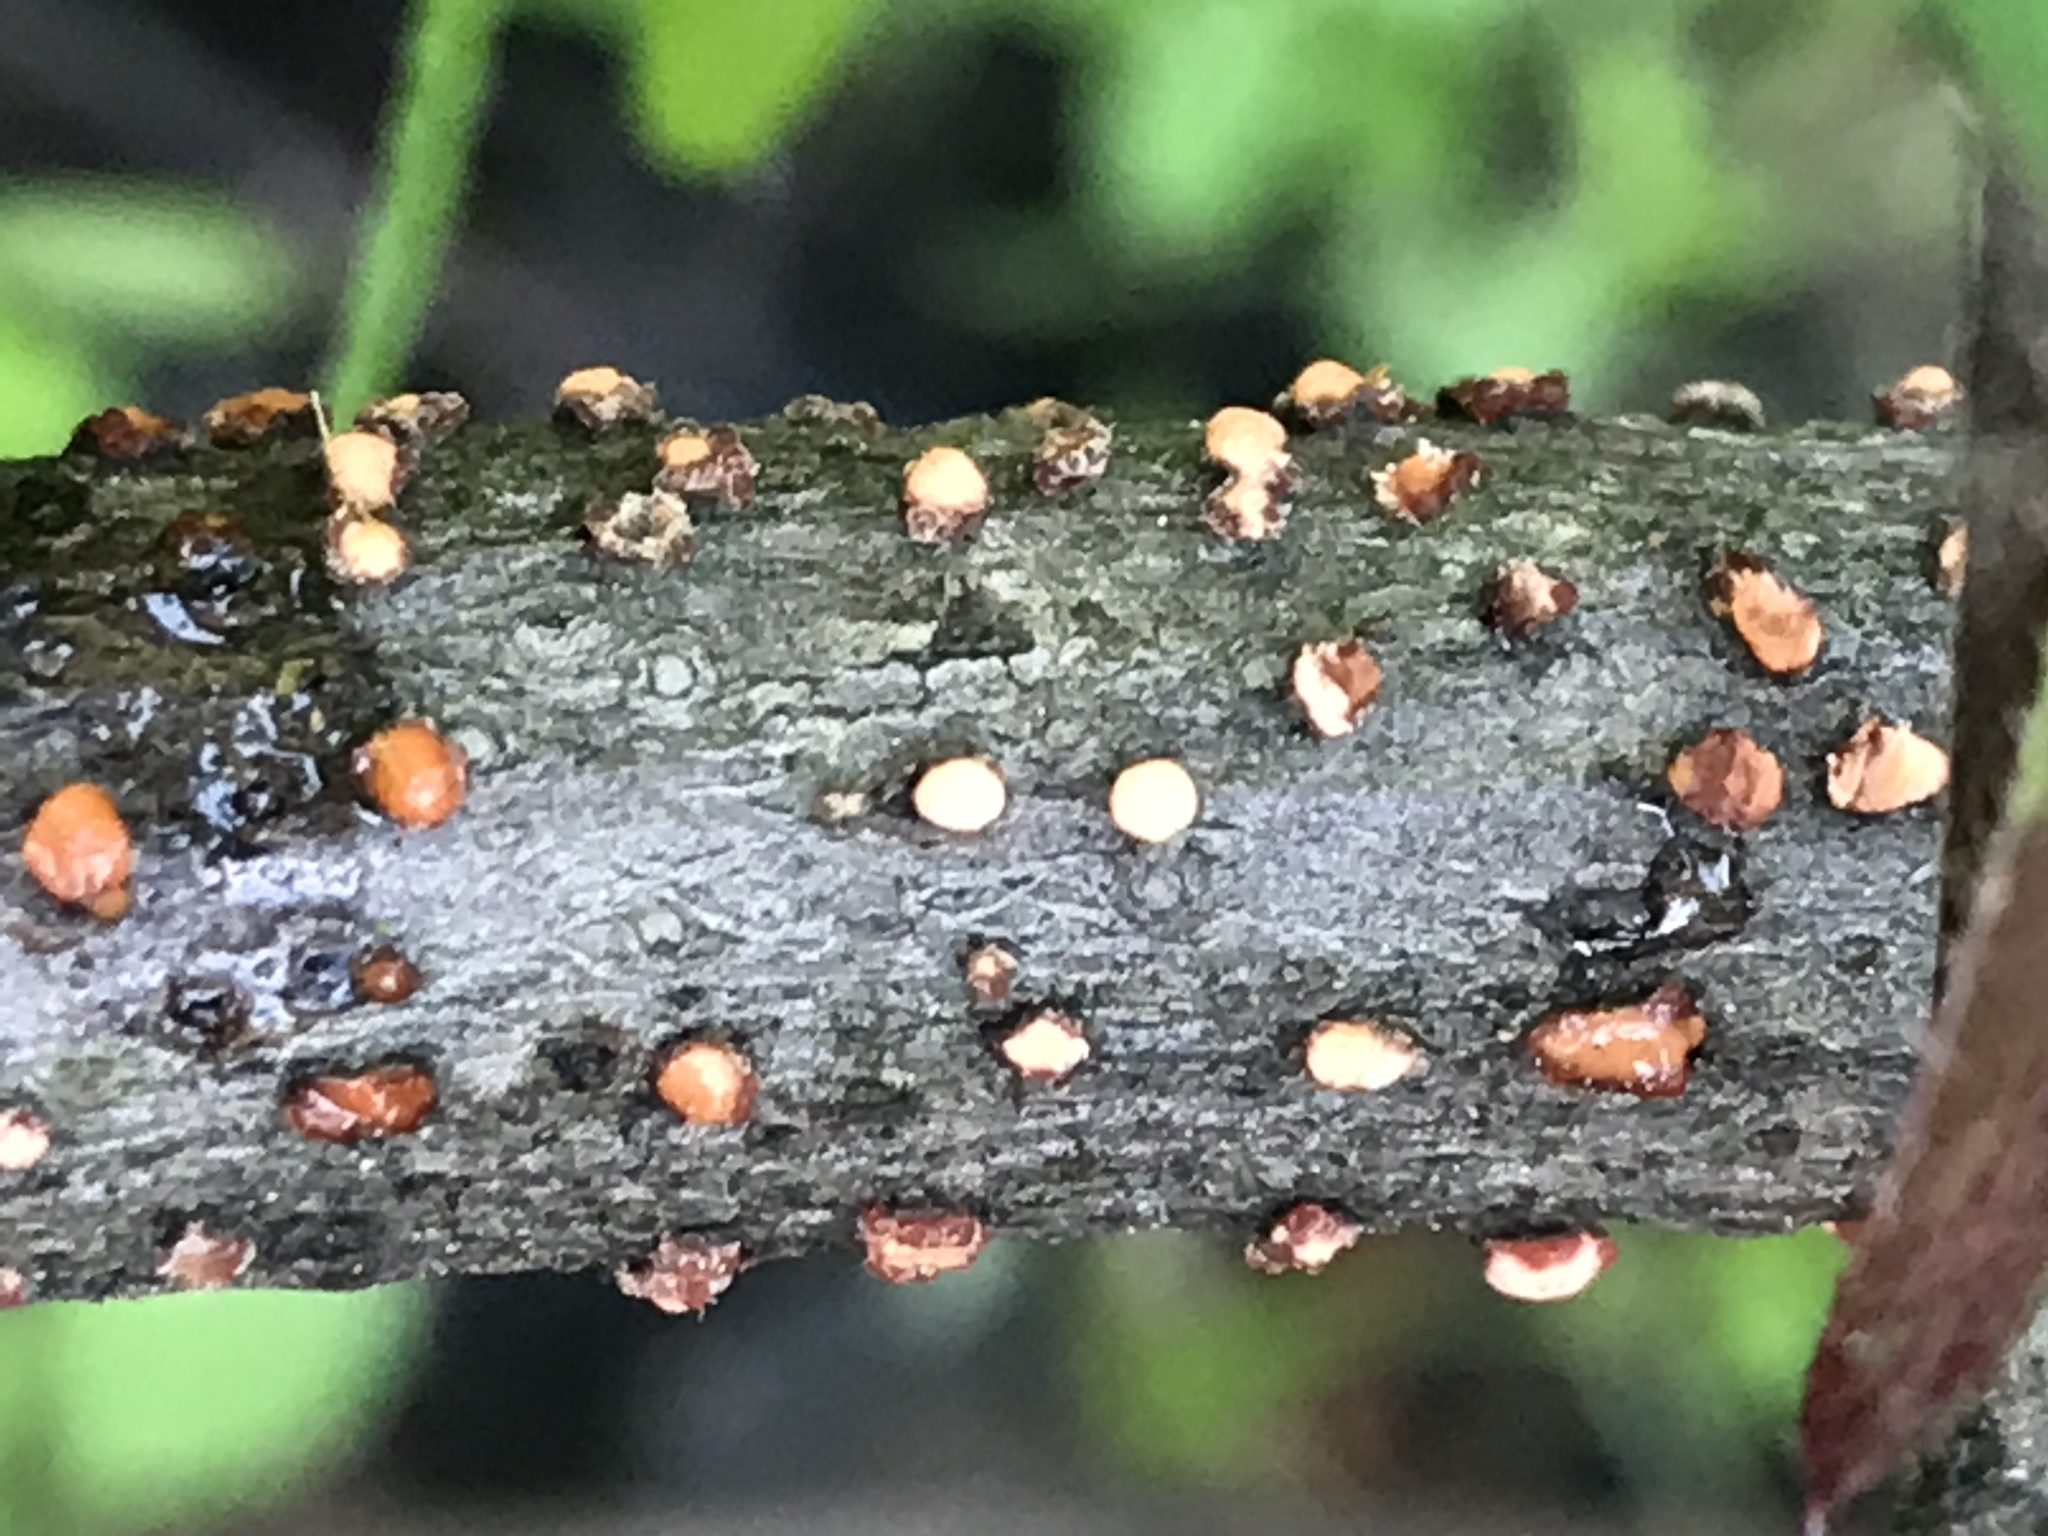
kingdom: Fungi
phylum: Ascomycota
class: Sordariomycetes
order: Hypocreales
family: Nectriaceae
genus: Nectria
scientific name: Nectria cinnabarina
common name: Coral spot
